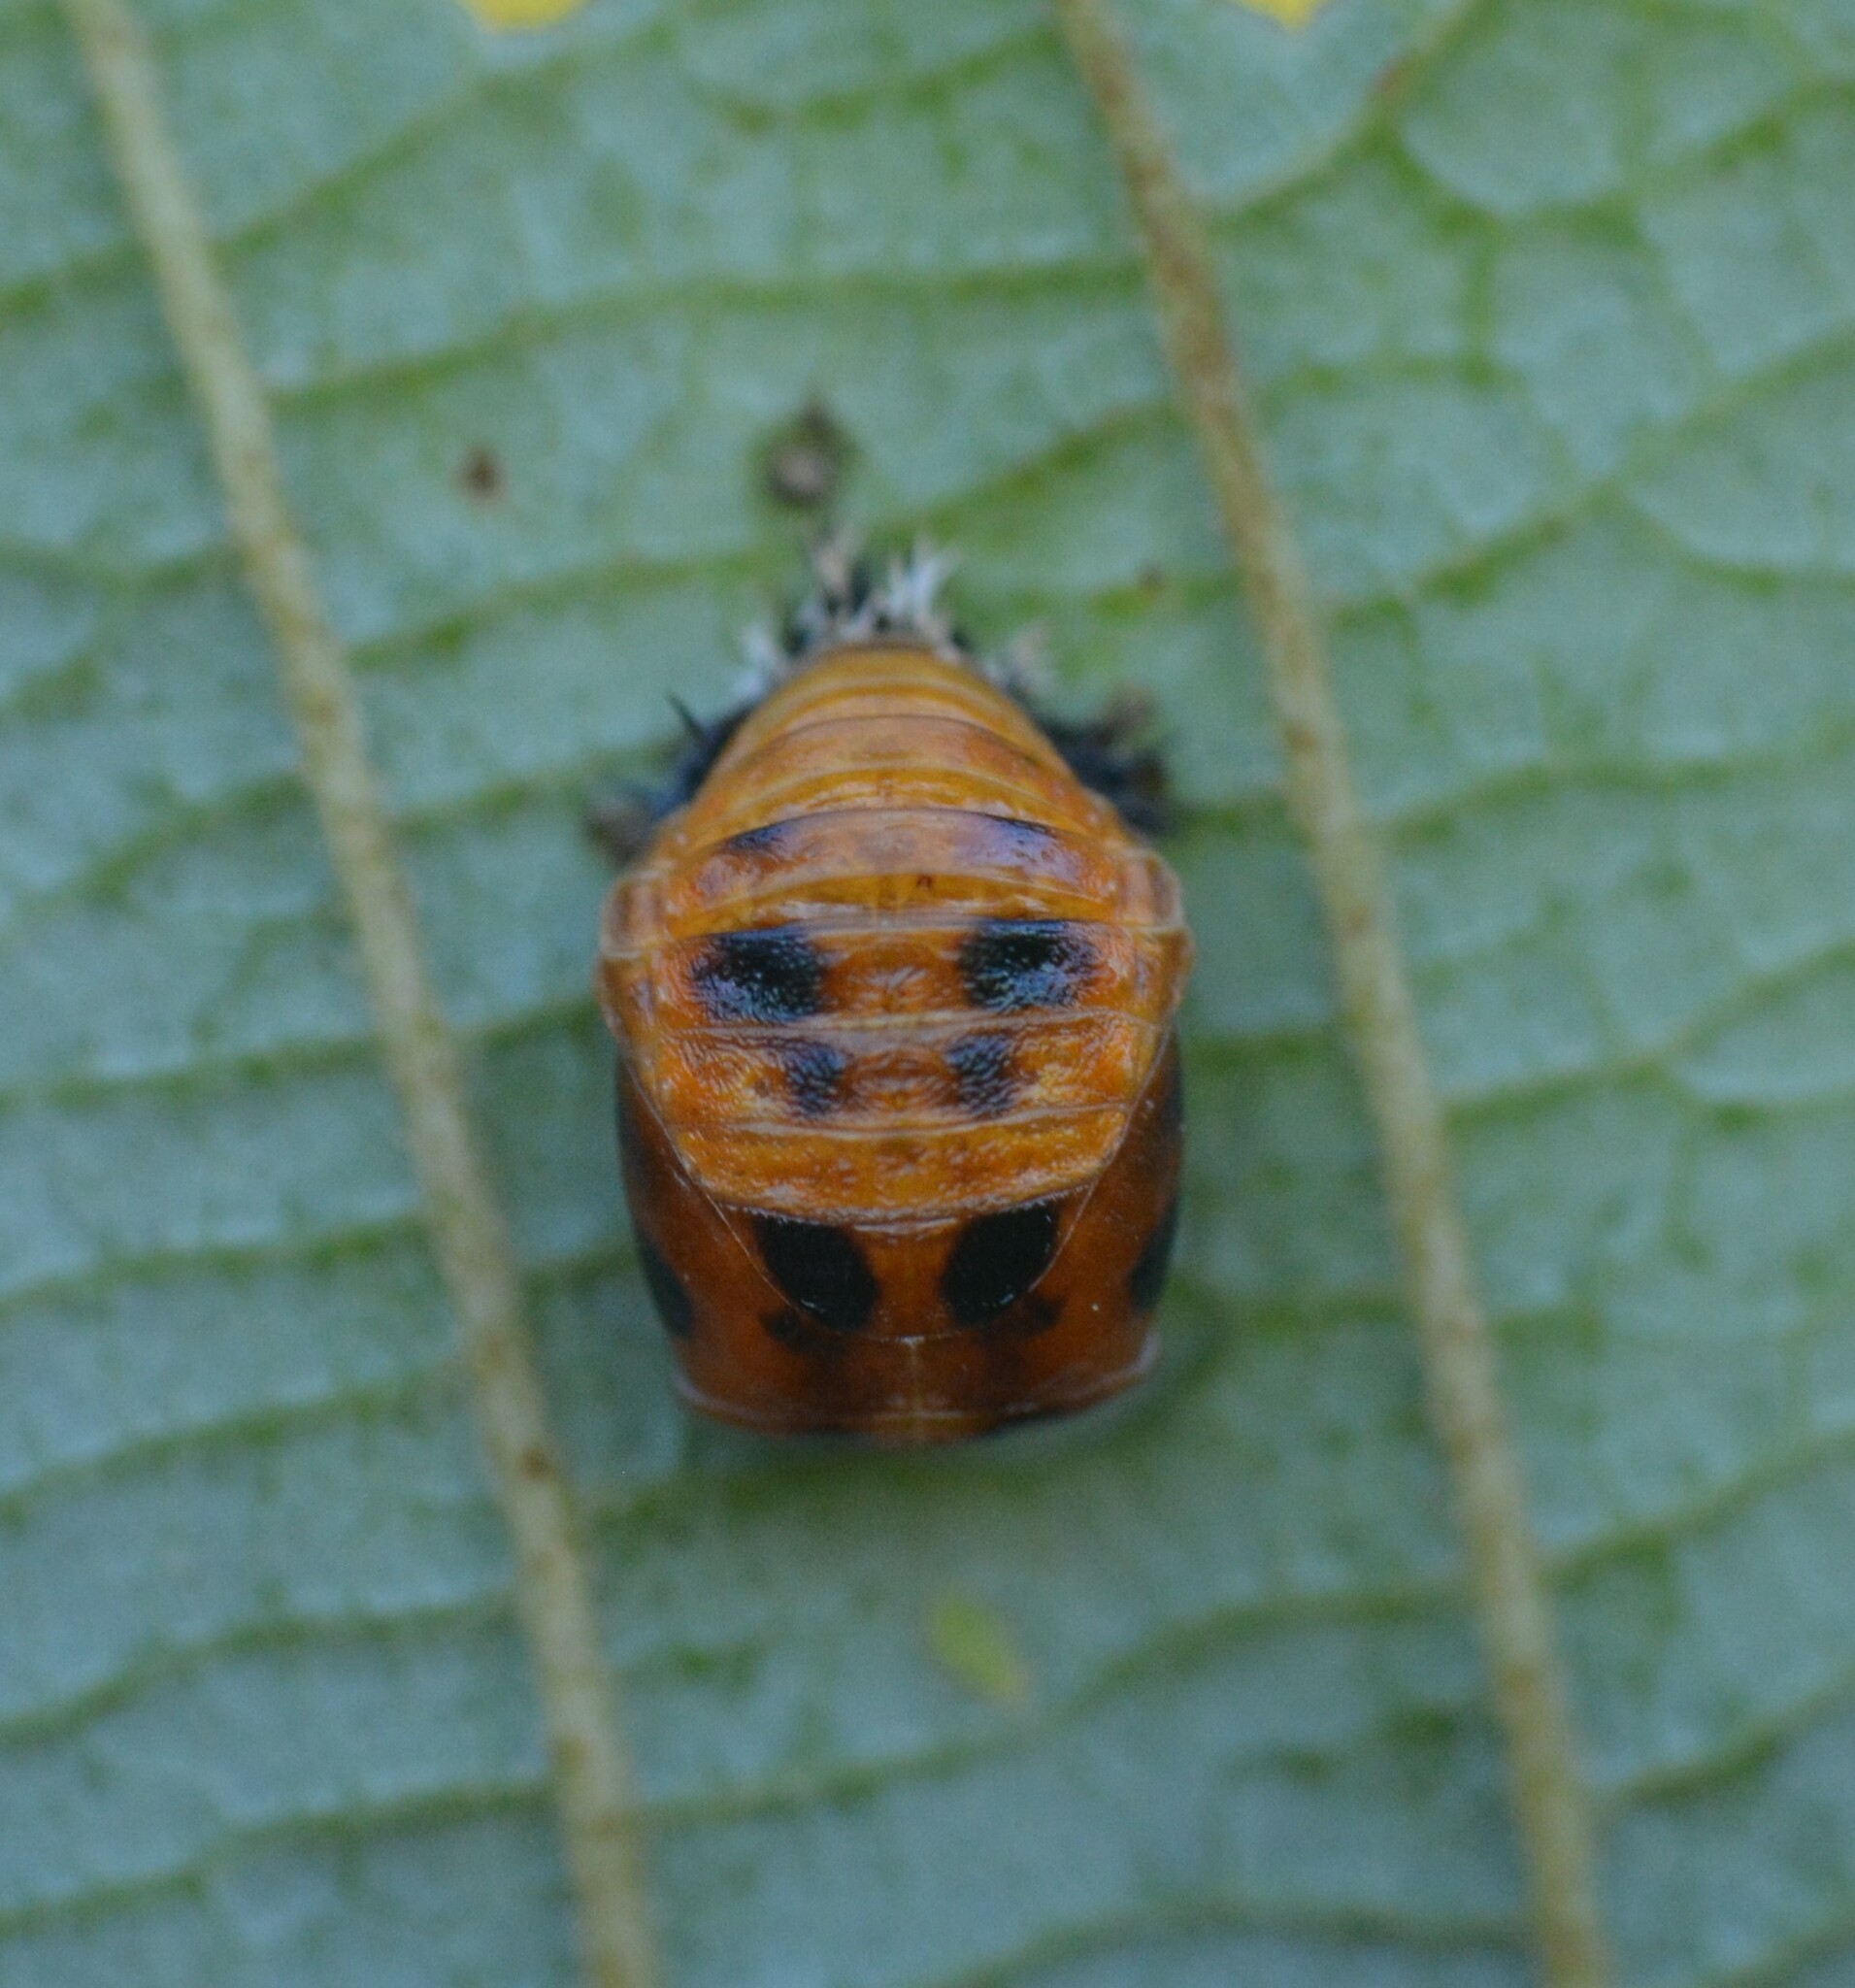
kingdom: Animalia
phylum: Arthropoda
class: Insecta
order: Coleoptera
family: Coccinellidae
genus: Harmonia
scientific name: Harmonia axyridis
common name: Harlequin ladybird
